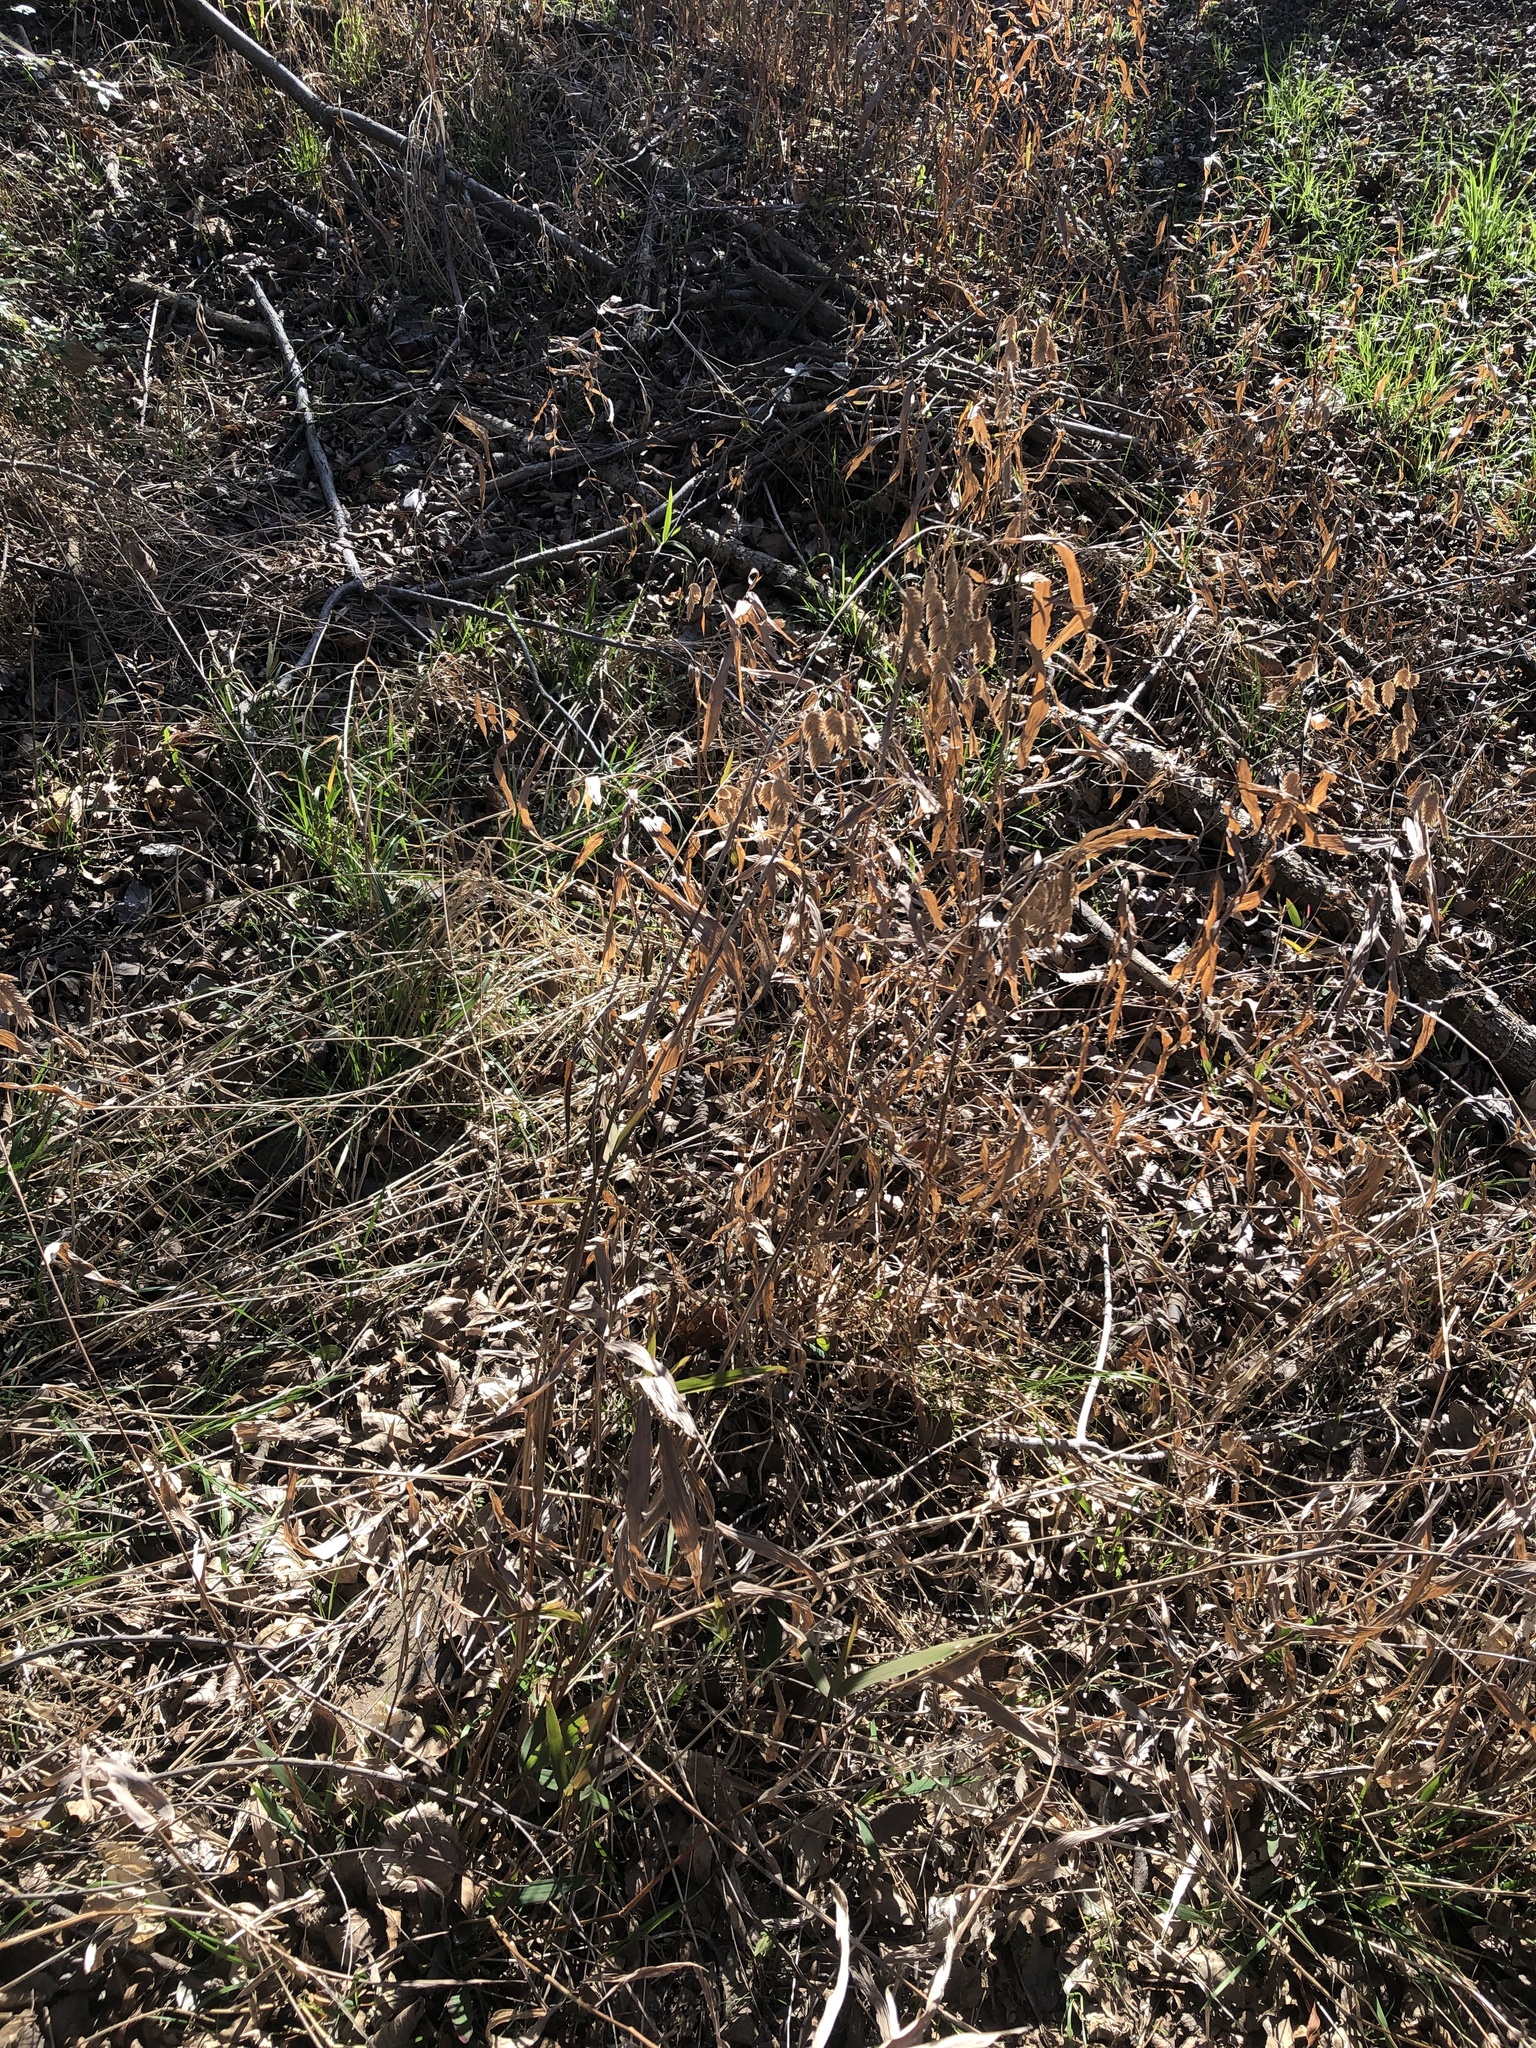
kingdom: Plantae
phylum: Tracheophyta
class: Liliopsida
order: Poales
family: Poaceae
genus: Chasmanthium
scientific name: Chasmanthium latifolium
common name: Broad-leaved chasmanthium
